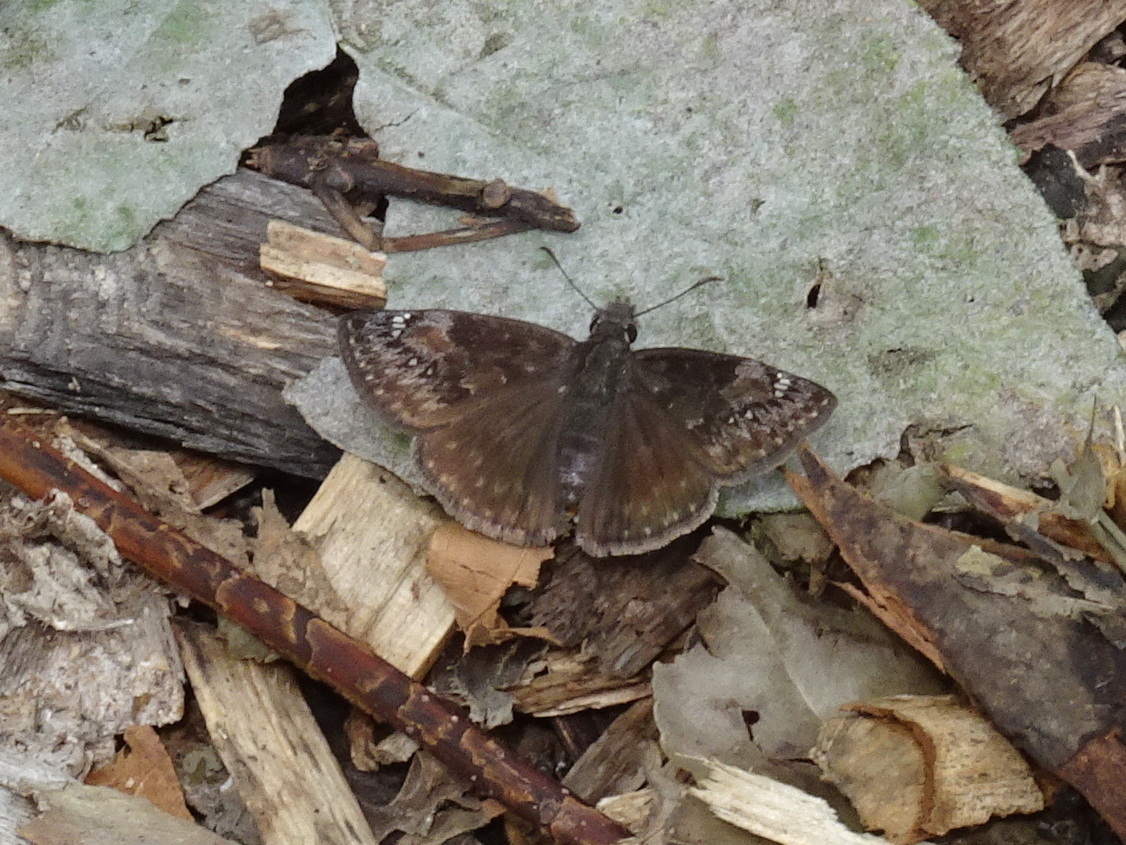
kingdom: Animalia
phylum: Arthropoda
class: Insecta
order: Lepidoptera
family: Hesperiidae
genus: Erynnis
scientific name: Erynnis baptisiae
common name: Wild indigo duskywing
